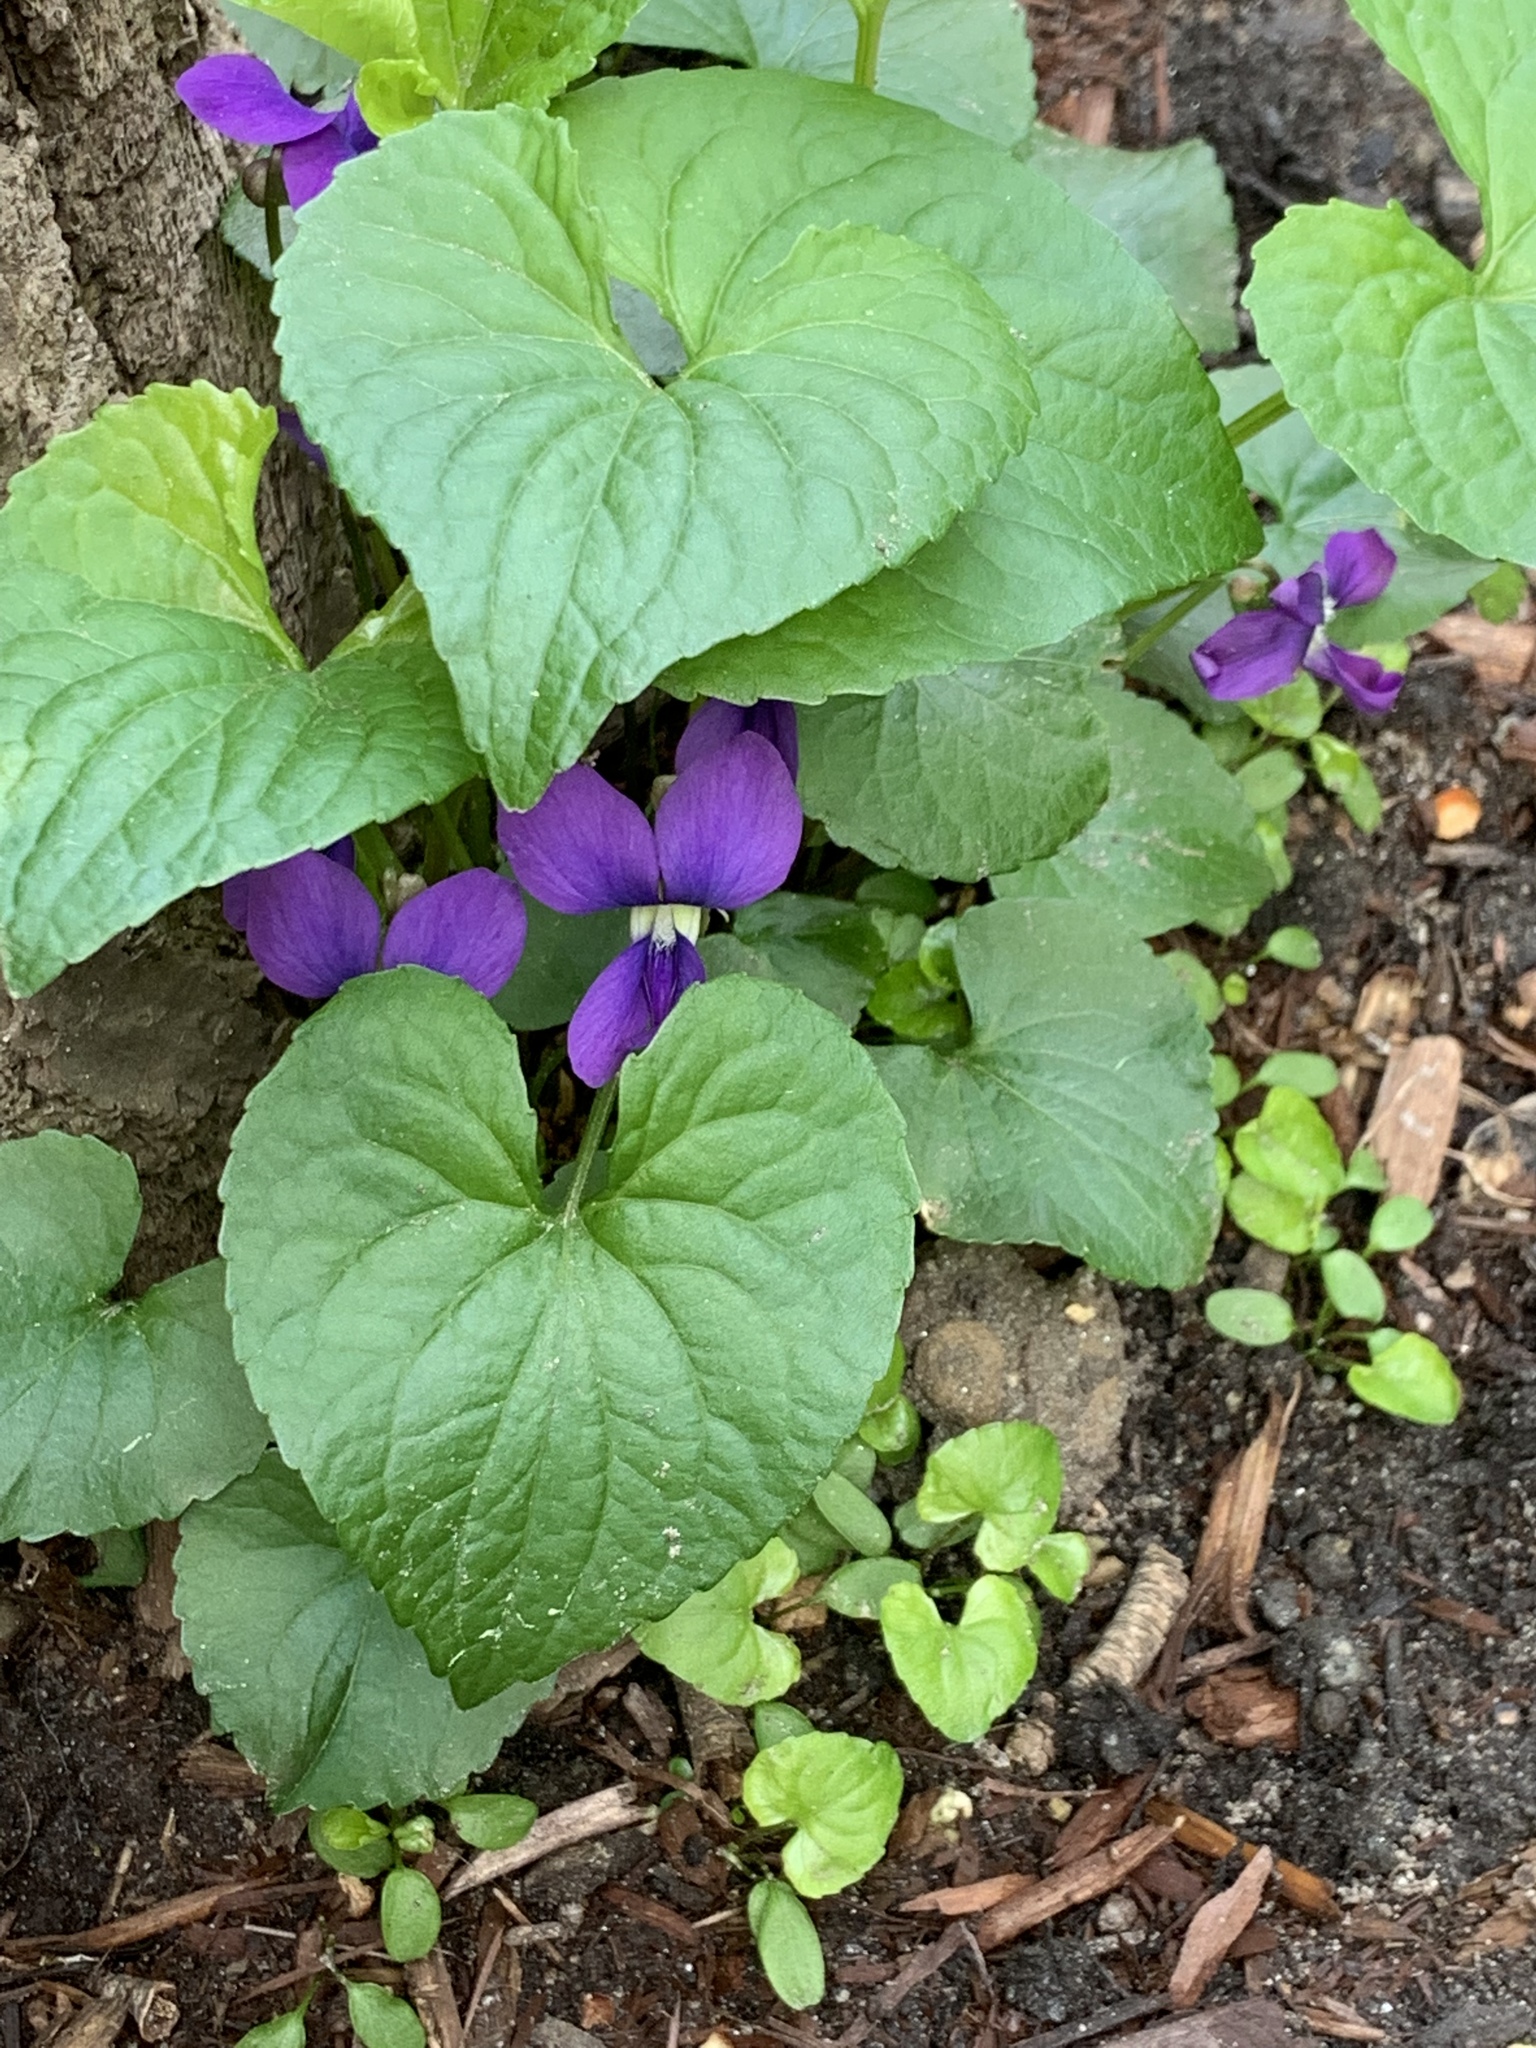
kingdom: Plantae
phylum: Tracheophyta
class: Magnoliopsida
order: Malpighiales
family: Violaceae
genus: Viola
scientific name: Viola sororia
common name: Dooryard violet
